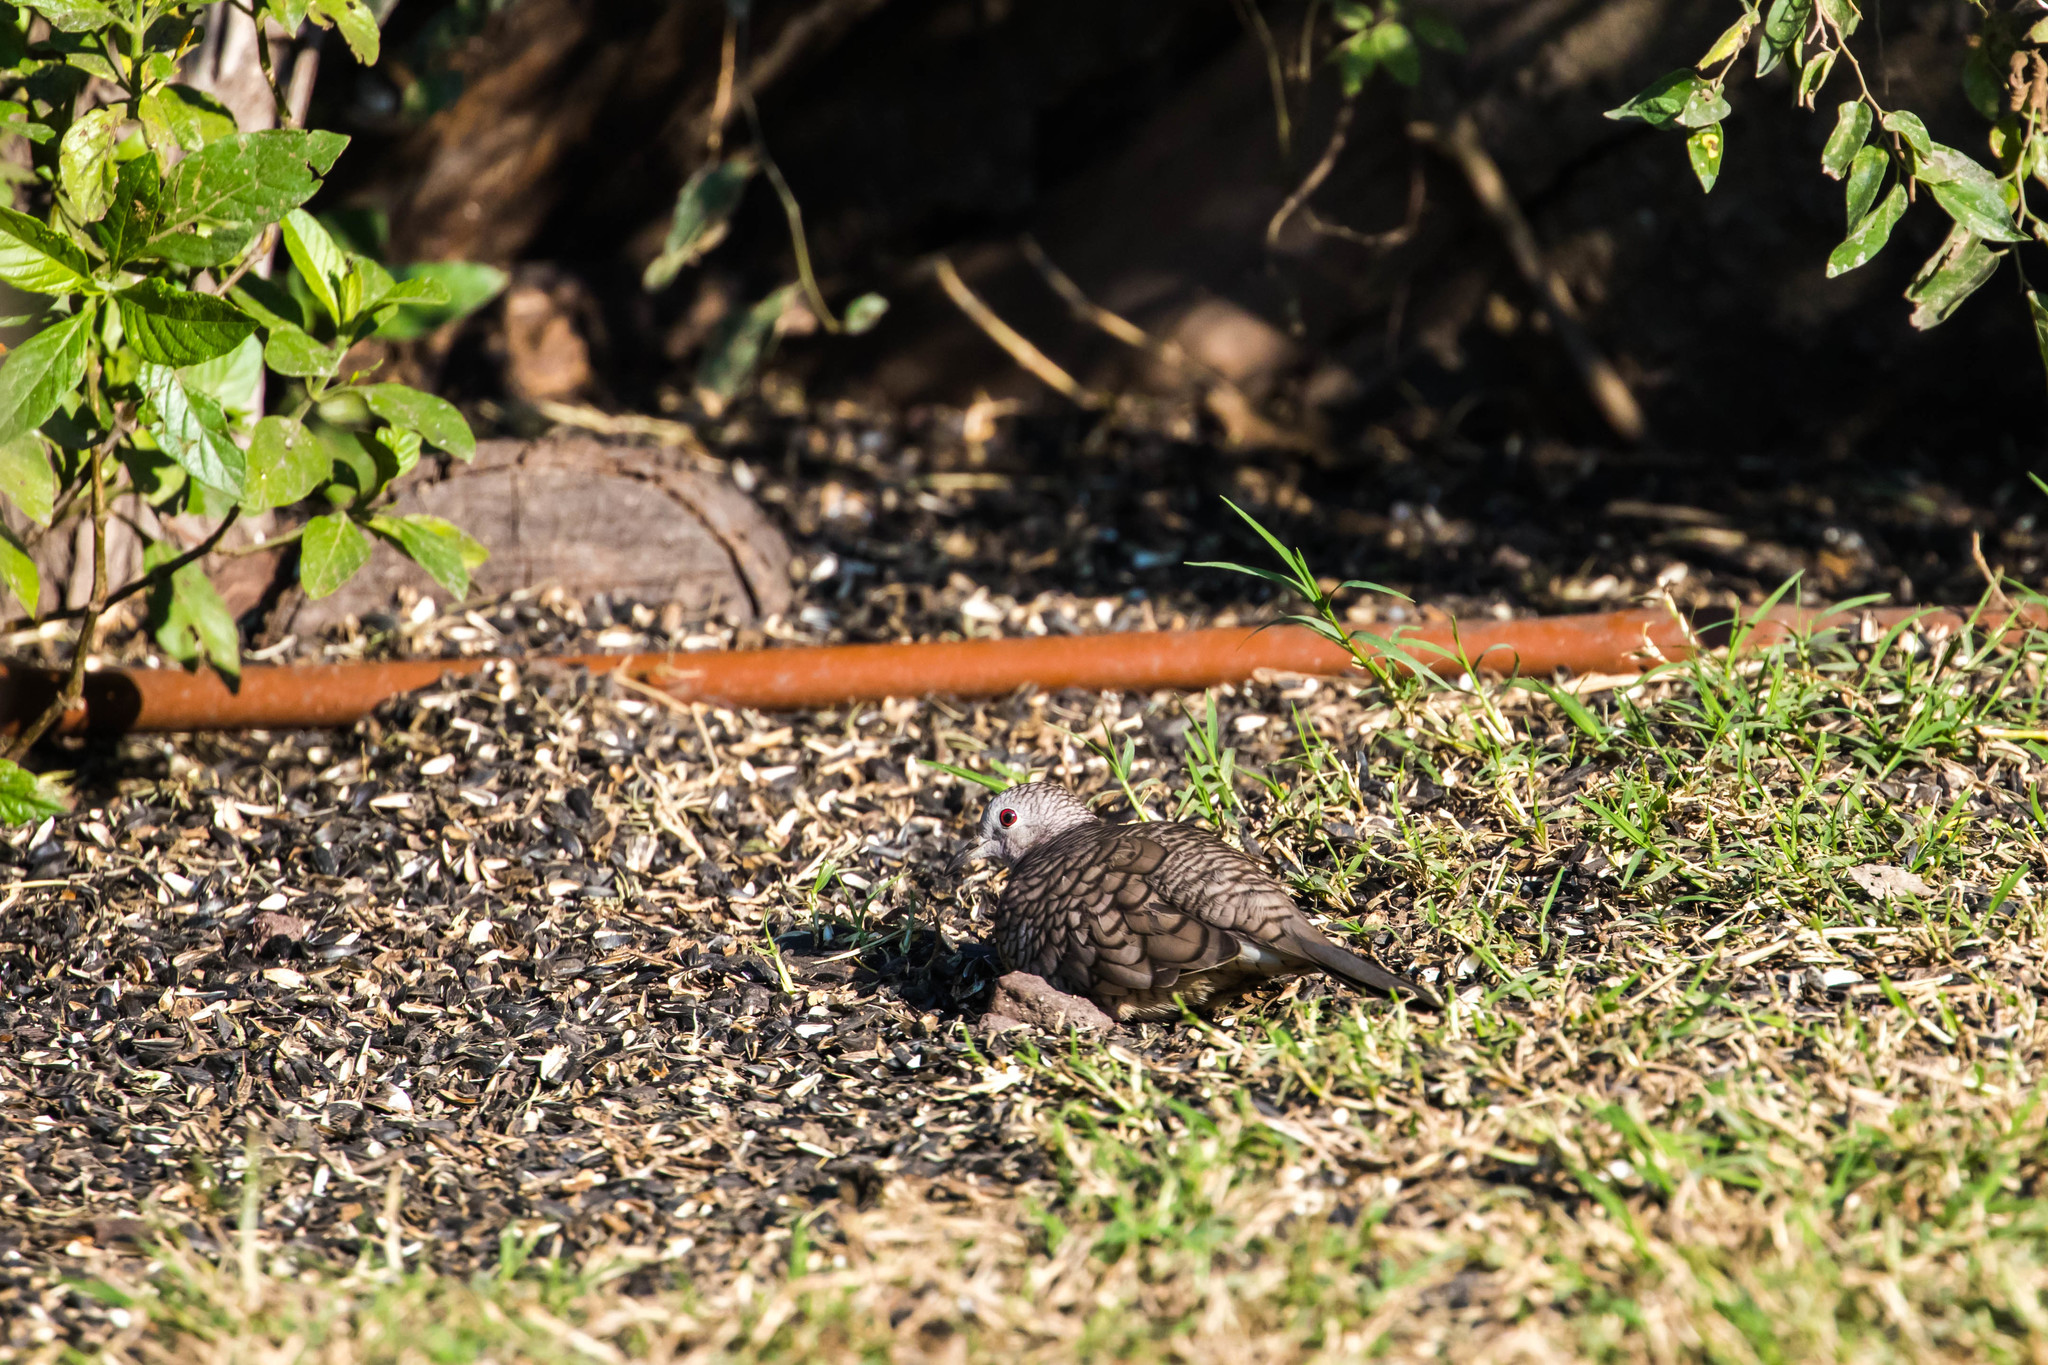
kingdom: Animalia
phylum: Chordata
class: Aves
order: Columbiformes
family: Columbidae
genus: Columbina
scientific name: Columbina inca
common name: Inca dove
